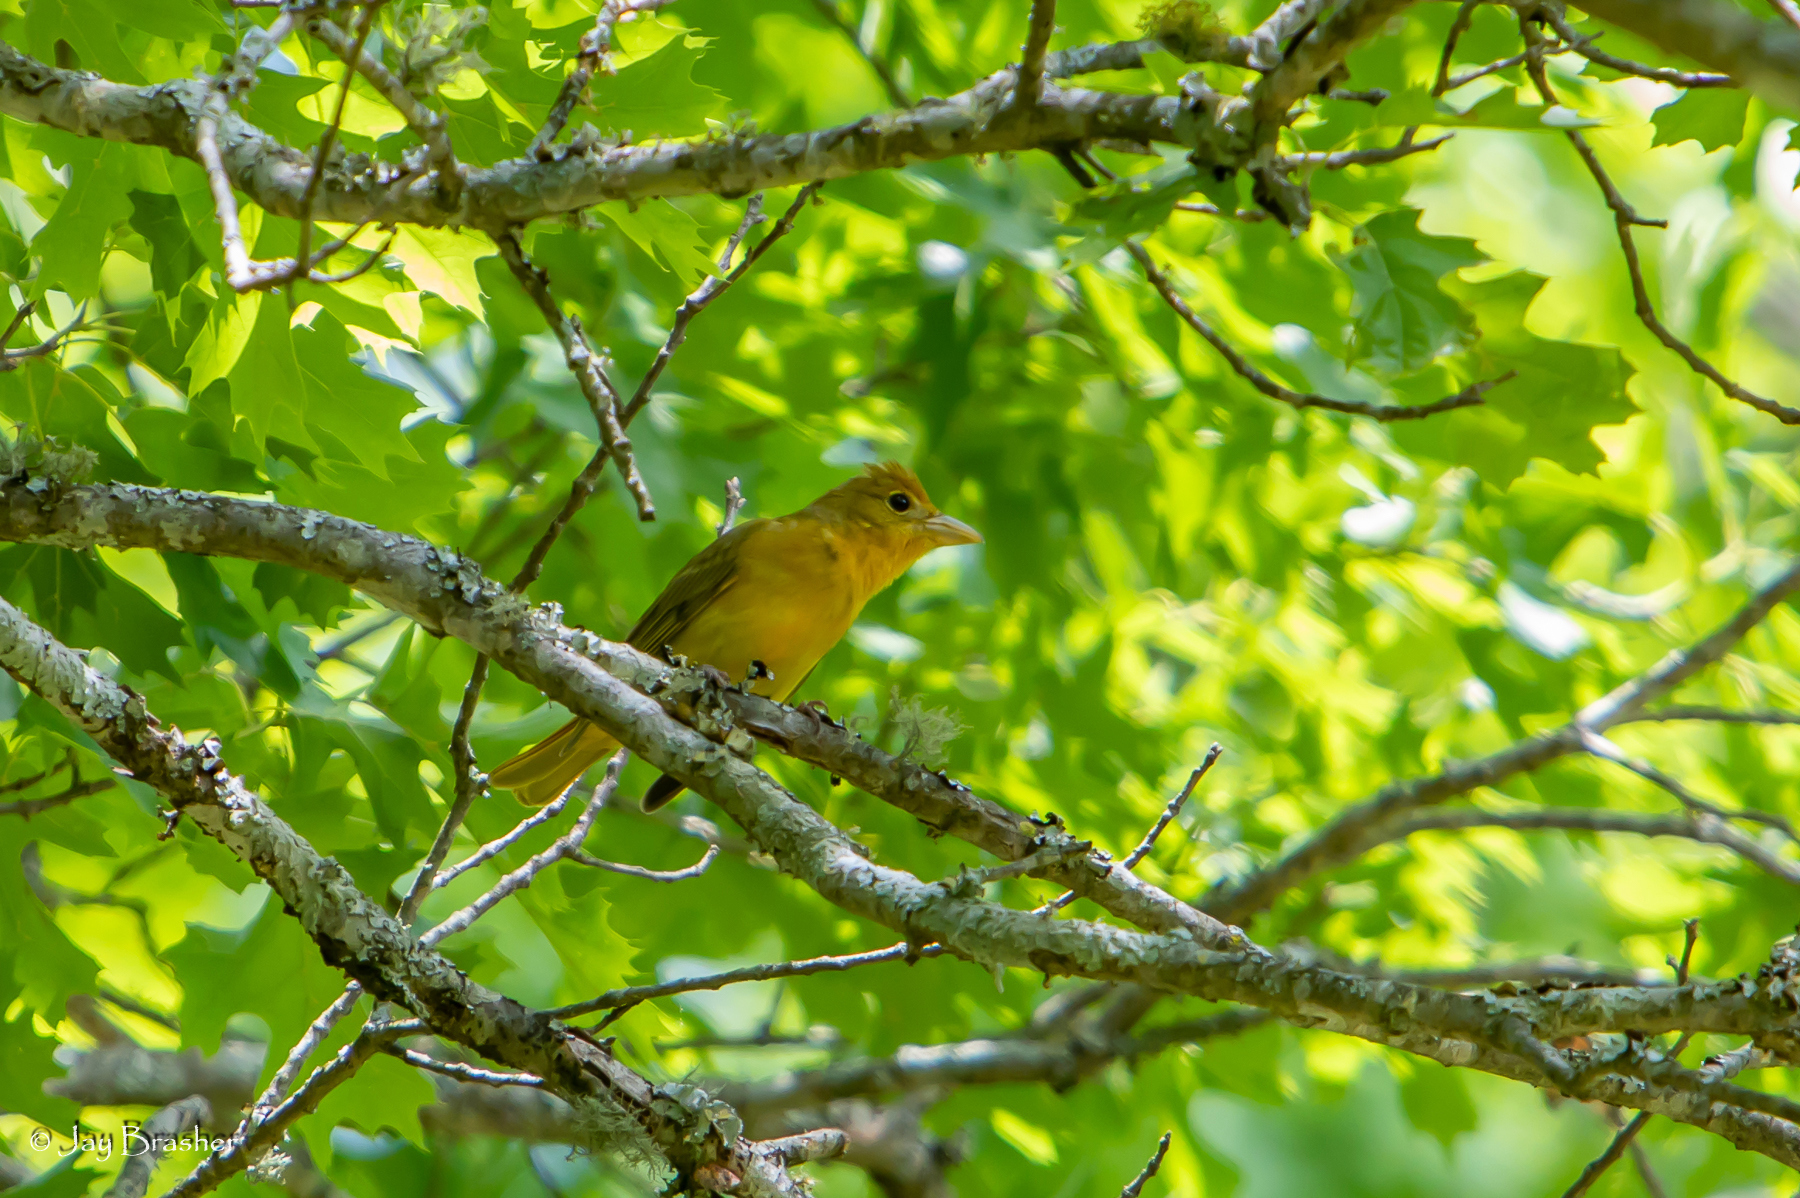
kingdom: Animalia
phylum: Chordata
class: Aves
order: Passeriformes
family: Cardinalidae
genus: Piranga
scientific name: Piranga rubra
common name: Summer tanager
